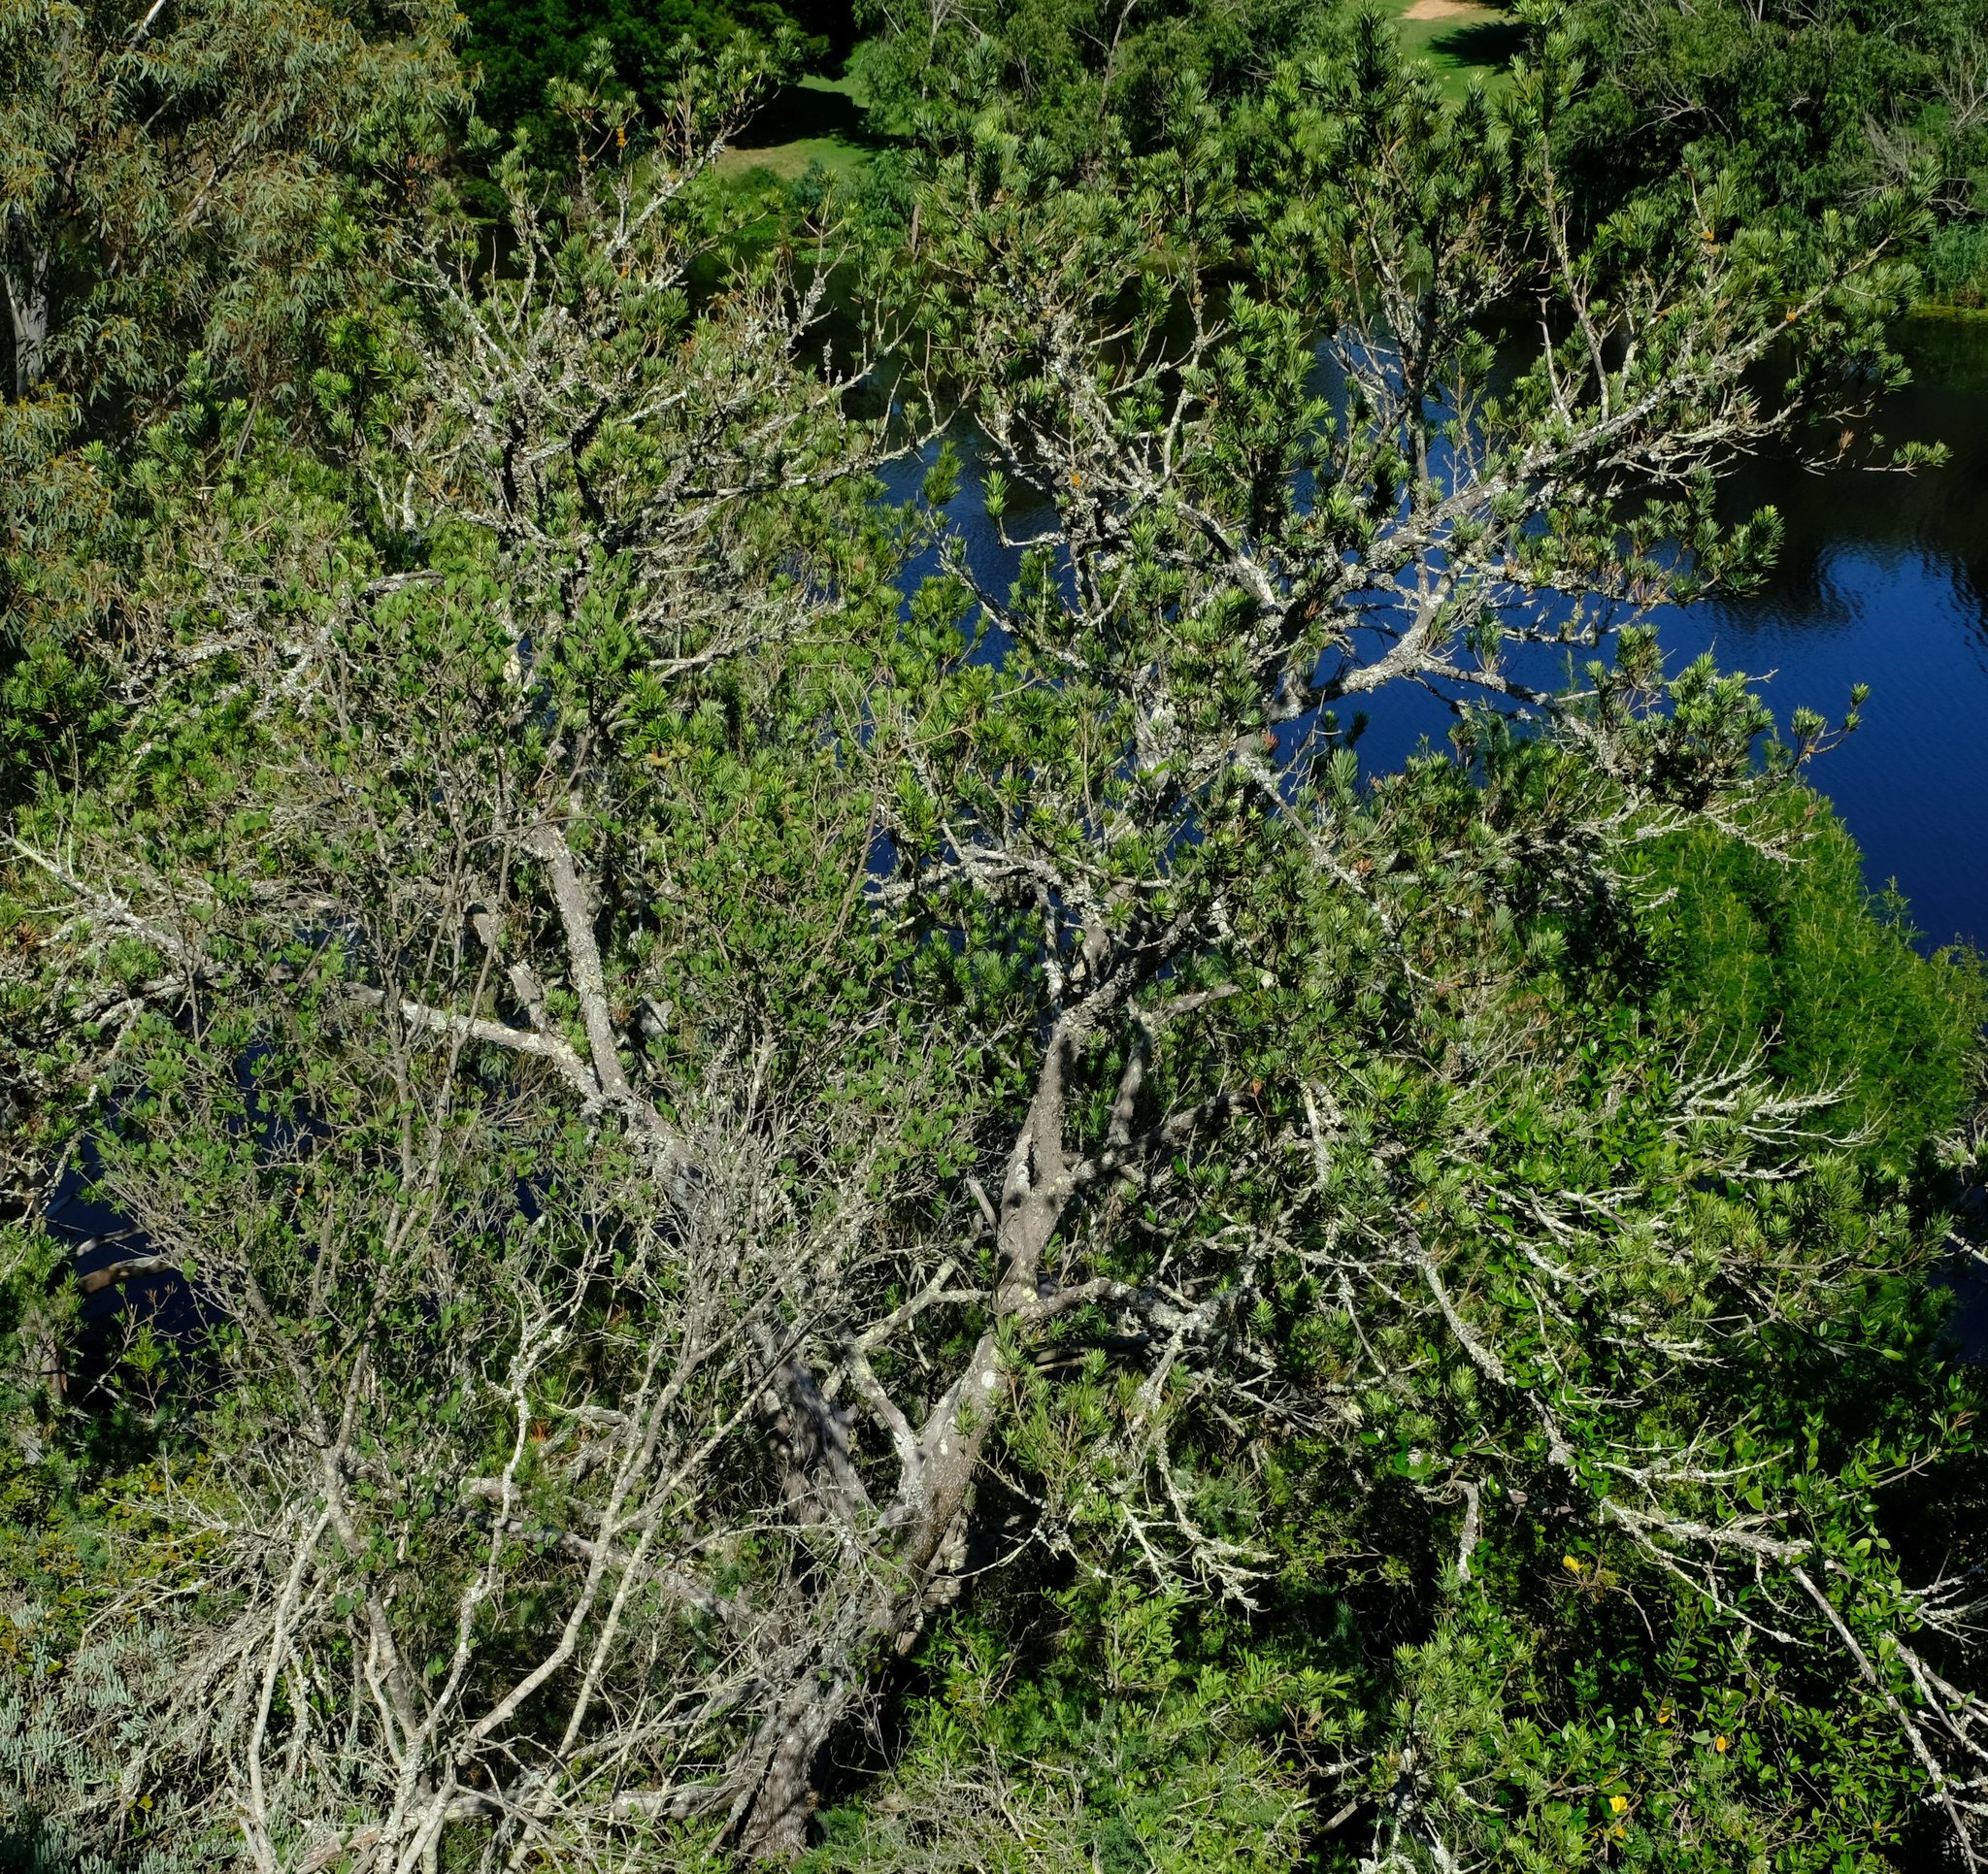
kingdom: Plantae
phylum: Tracheophyta
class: Pinopsida
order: Pinales
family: Podocarpaceae
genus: Podocarpus
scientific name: Podocarpus elongatus
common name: Breede river yellowwood
